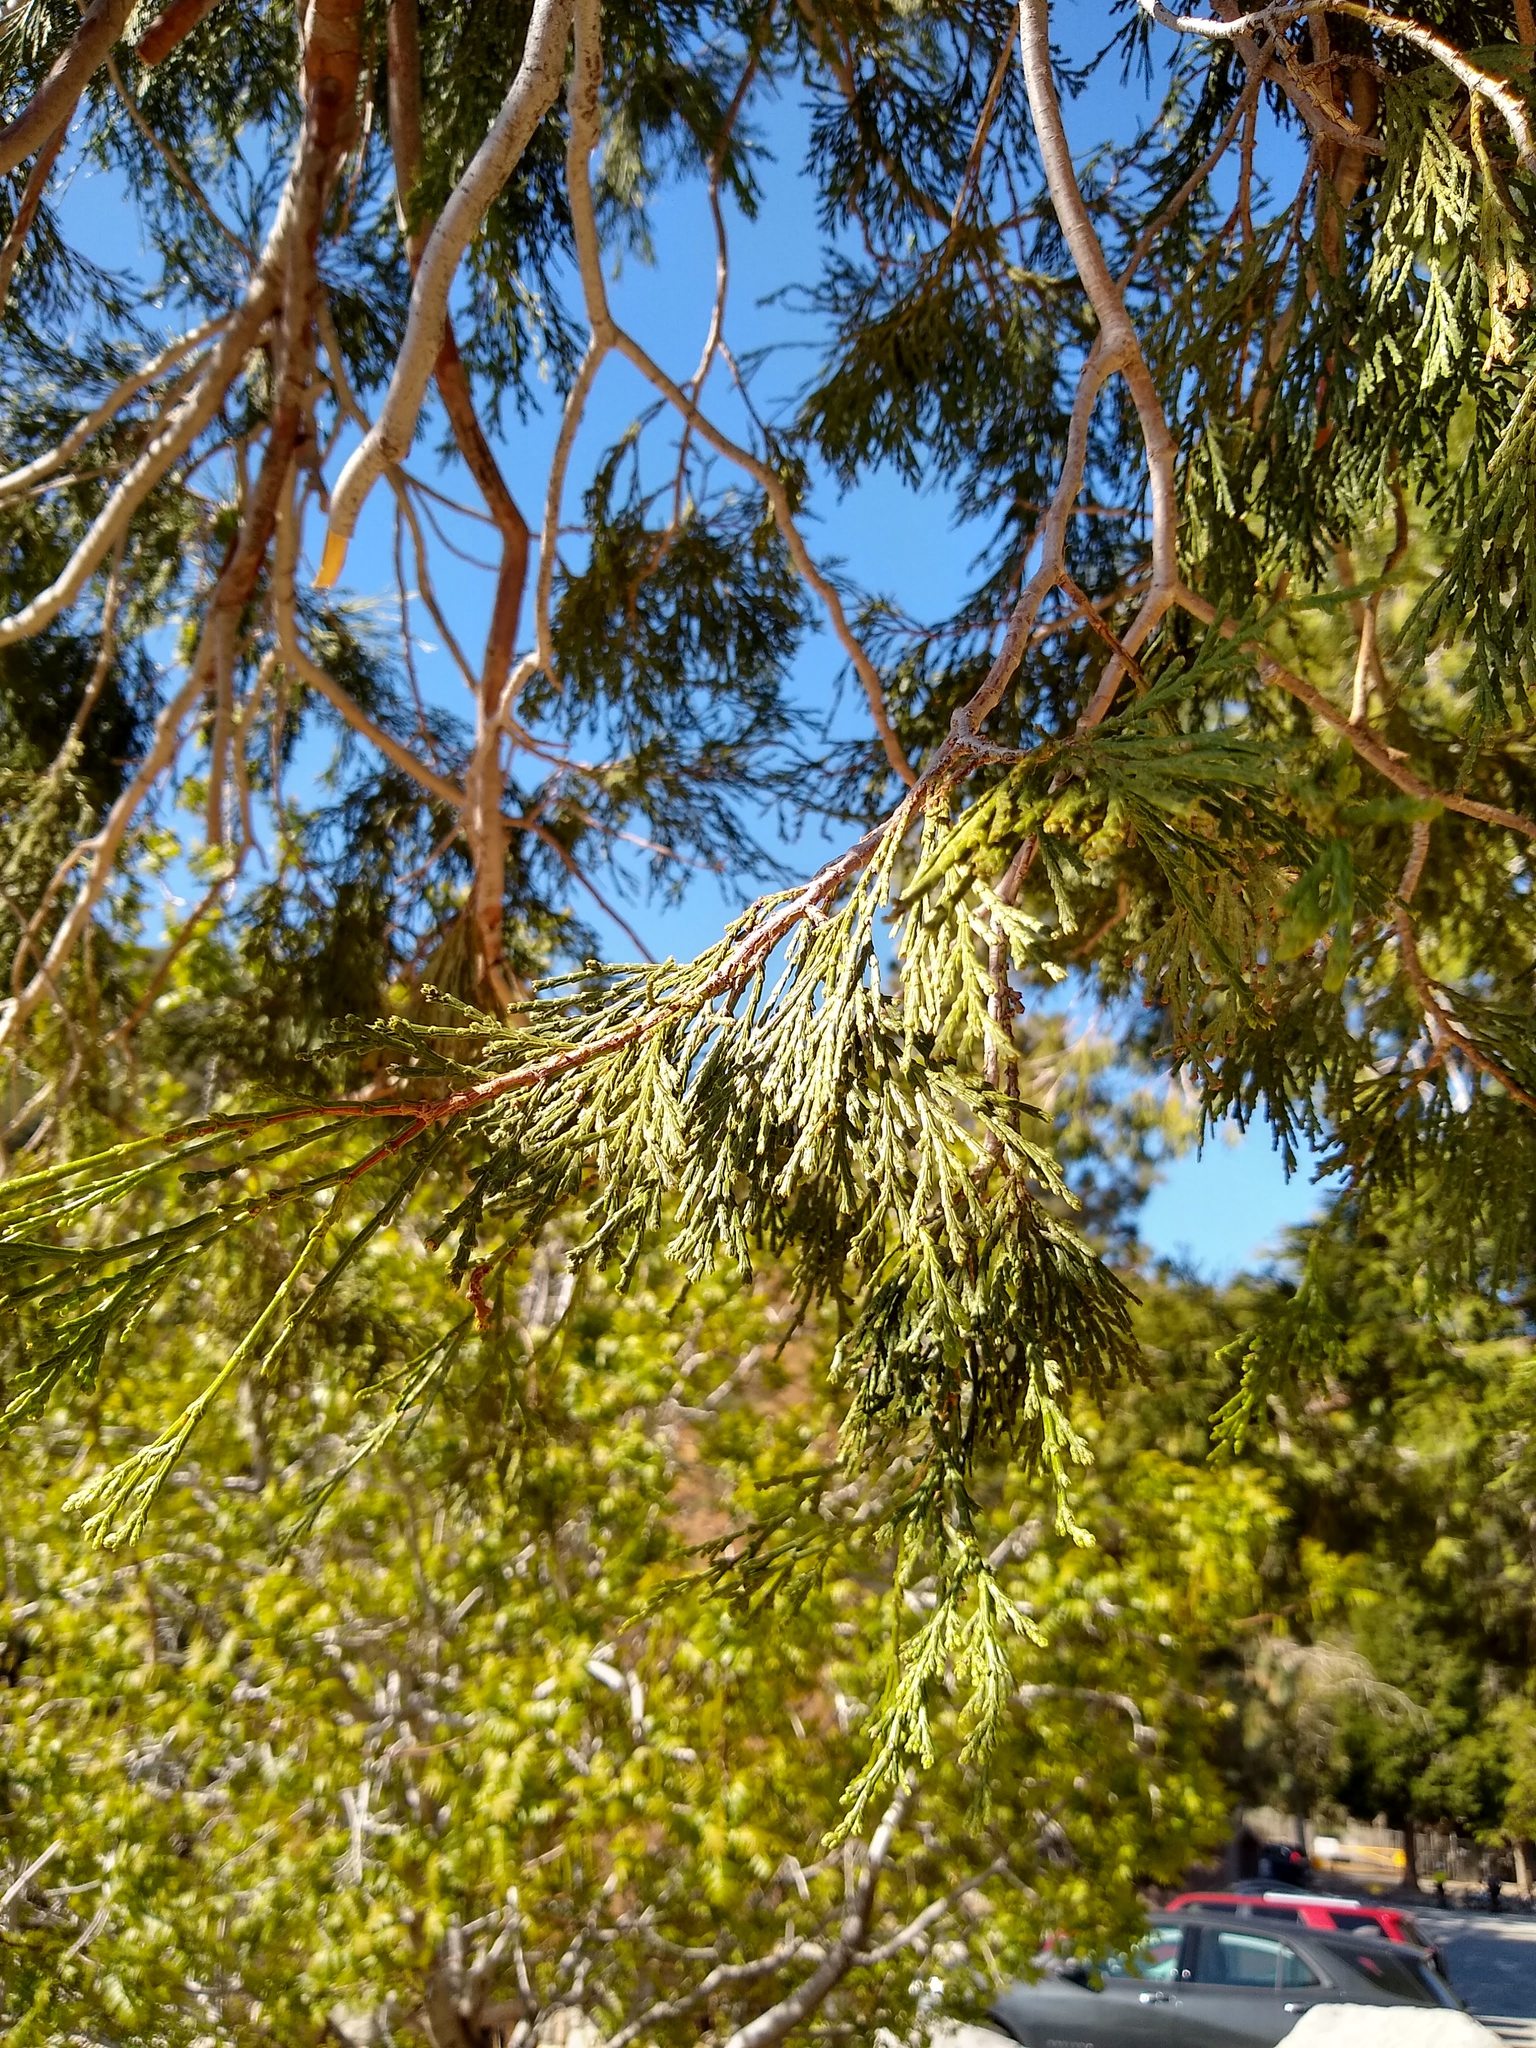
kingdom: Plantae
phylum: Tracheophyta
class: Pinopsida
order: Pinales
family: Cupressaceae
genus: Calocedrus
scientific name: Calocedrus decurrens
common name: Californian incense-cedar
